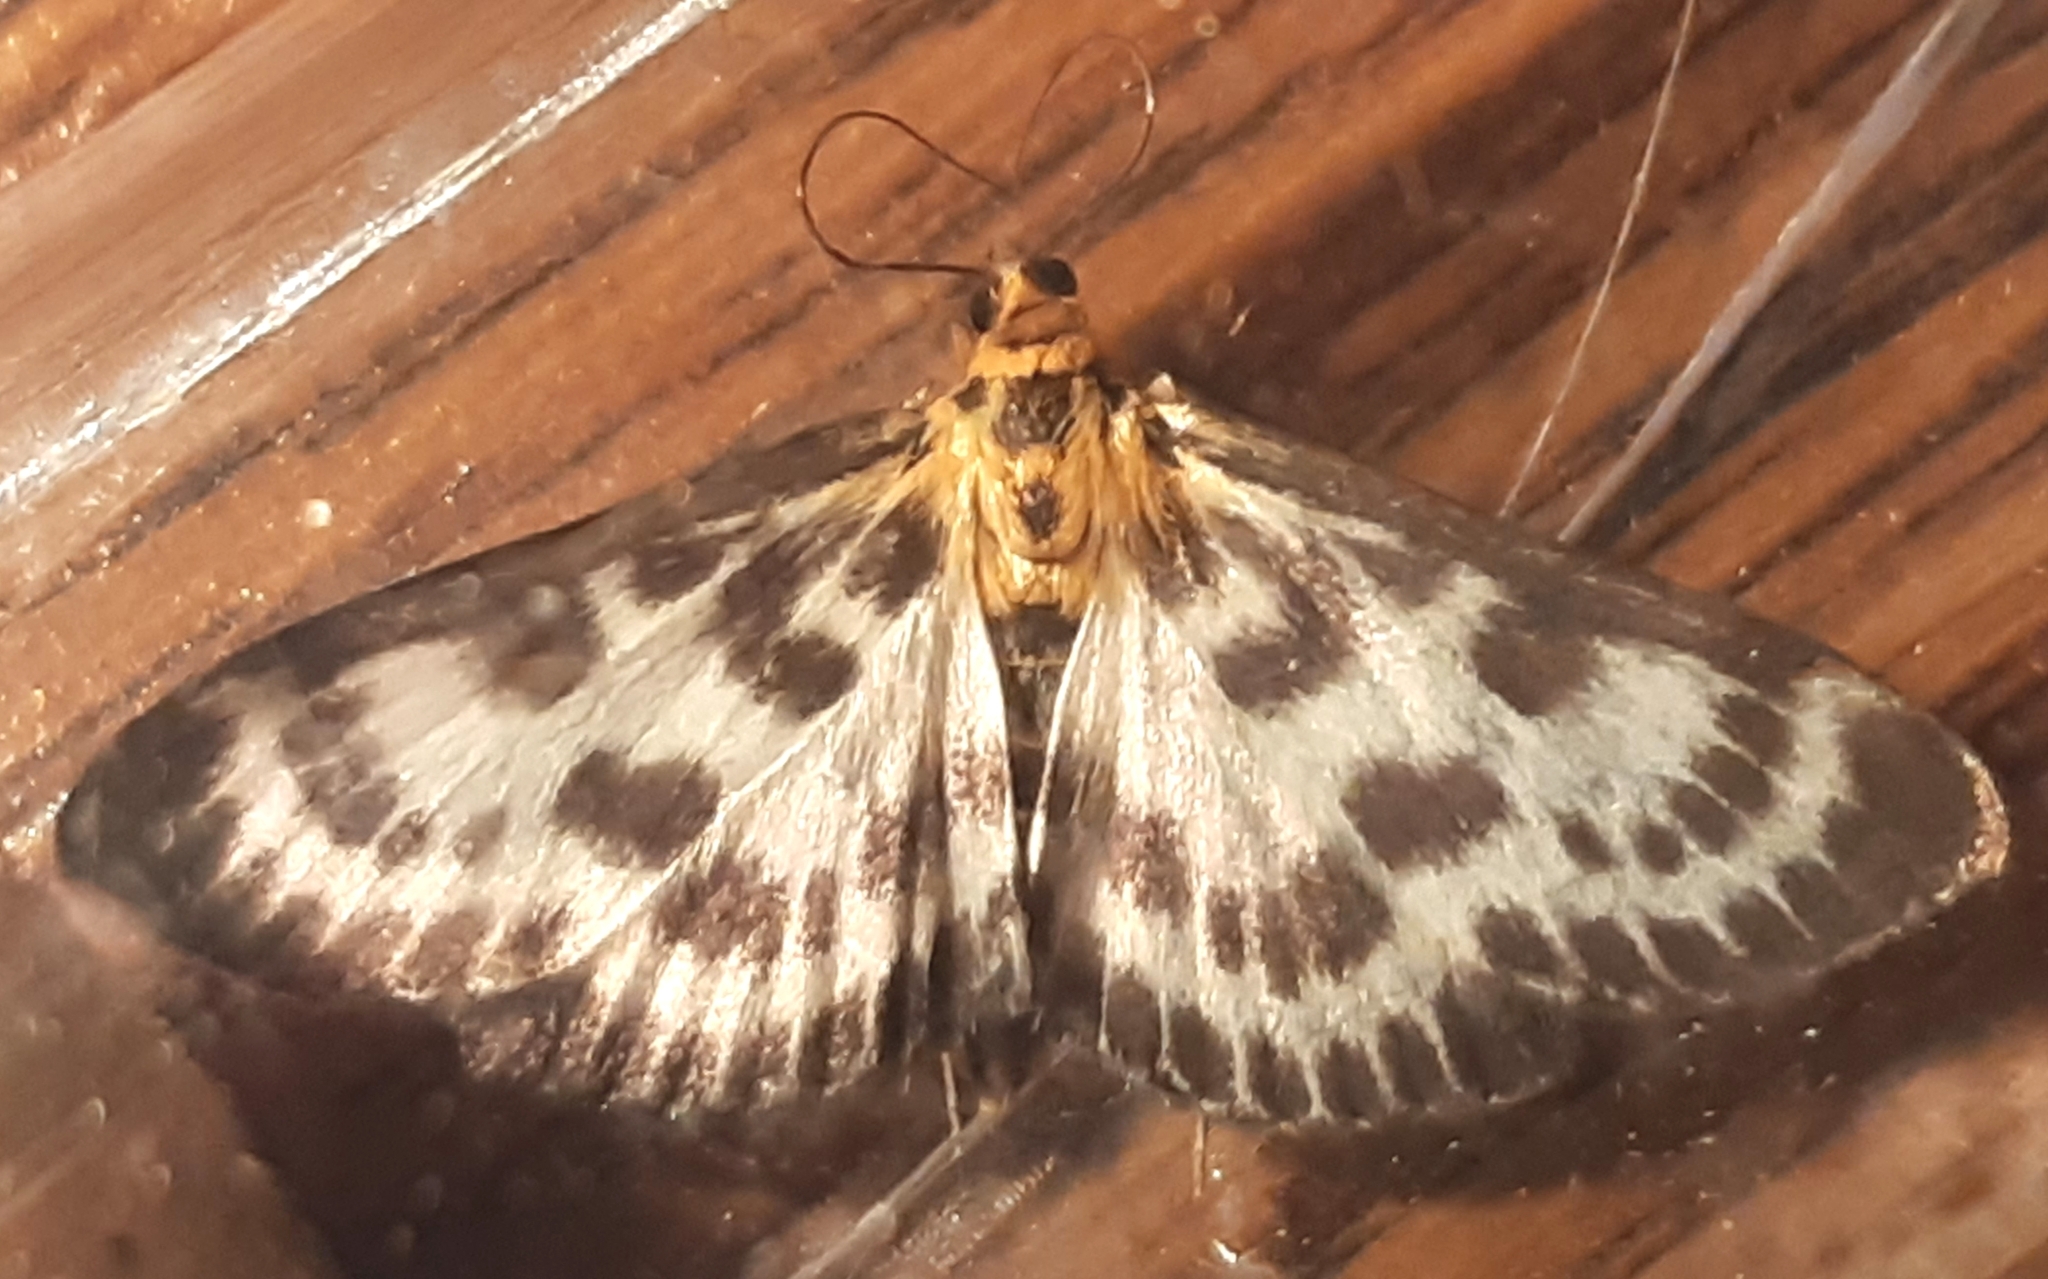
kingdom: Animalia
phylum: Arthropoda
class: Insecta
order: Lepidoptera
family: Crambidae
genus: Anania
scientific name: Anania hortulata
